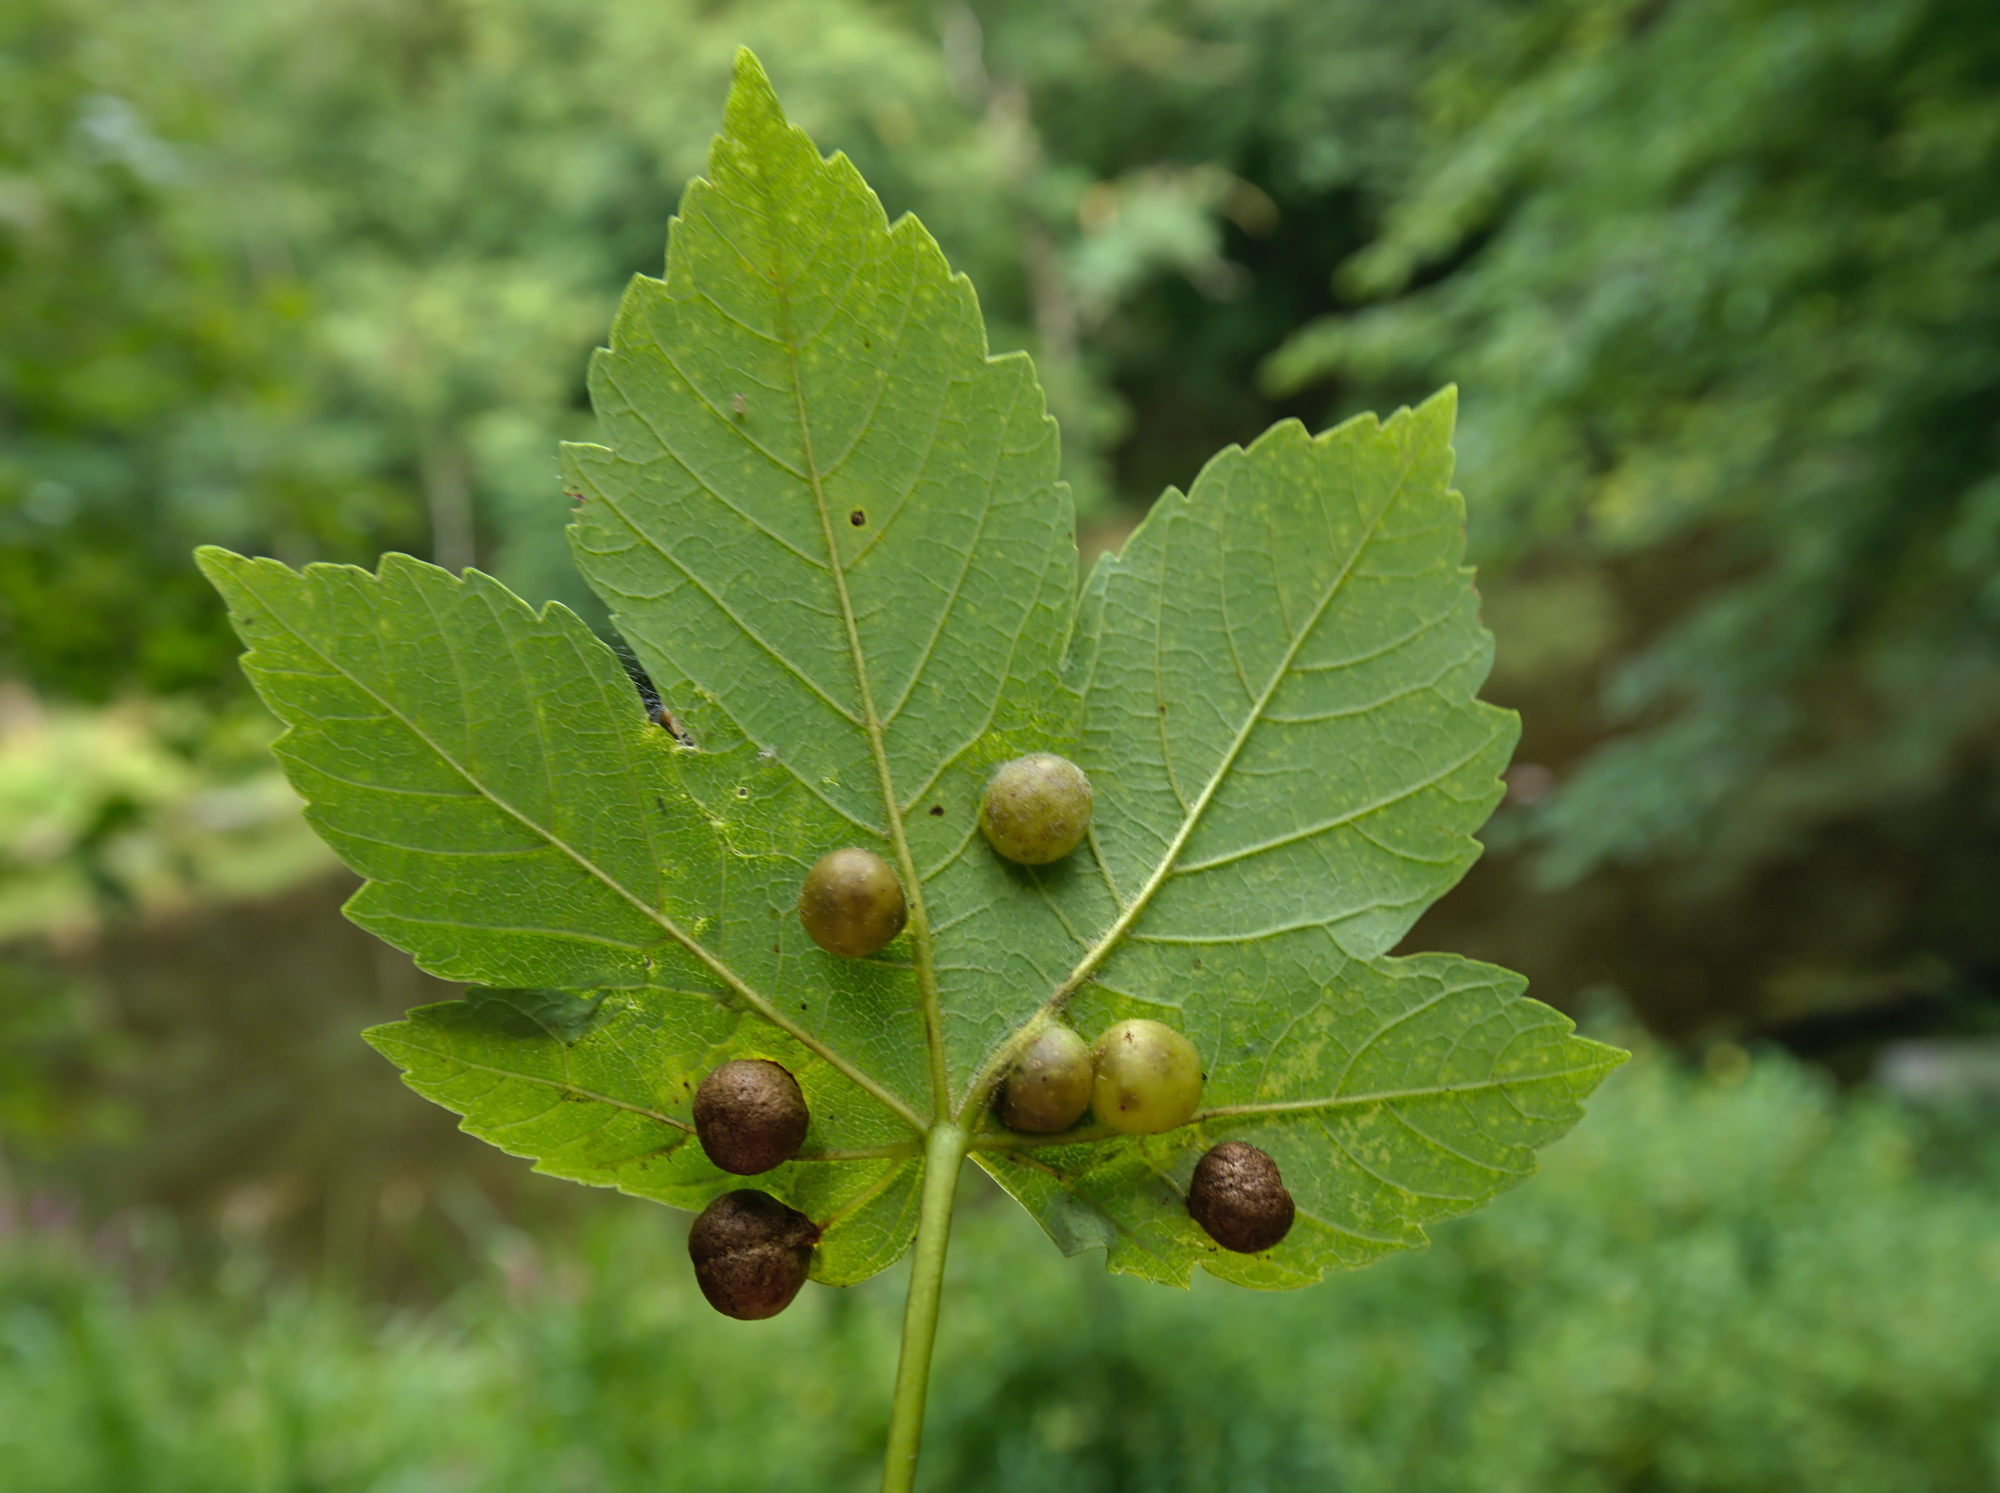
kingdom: Animalia
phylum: Arthropoda
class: Insecta
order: Hymenoptera
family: Cynipidae
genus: Pediaspis
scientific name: Pediaspis aceris
